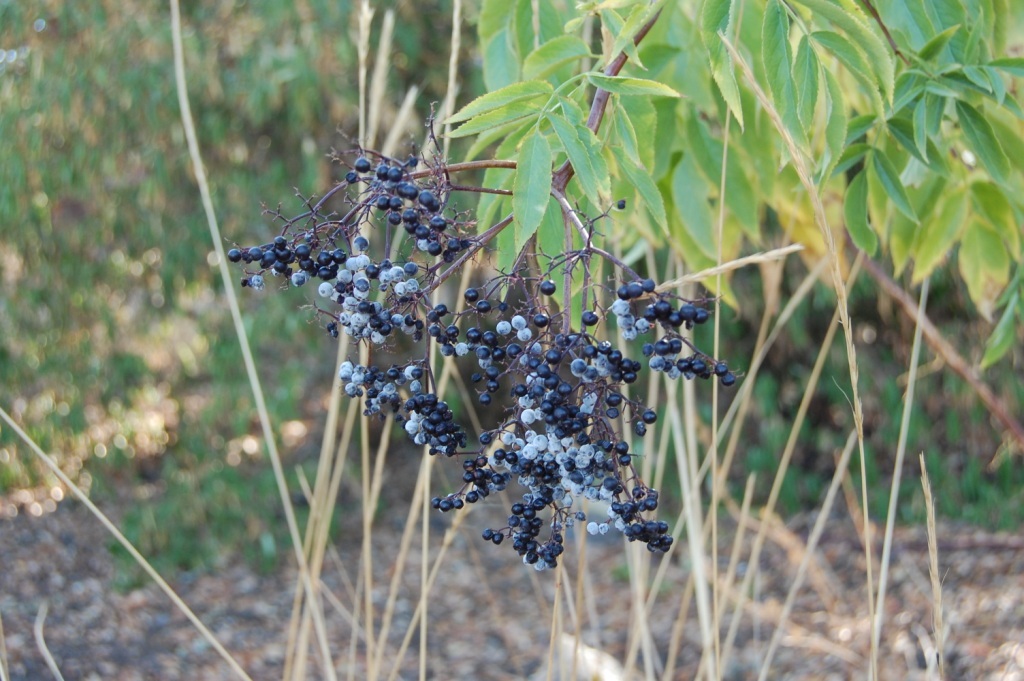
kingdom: Plantae
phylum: Tracheophyta
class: Magnoliopsida
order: Dipsacales
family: Viburnaceae
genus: Sambucus
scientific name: Sambucus cerulea
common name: Blue elder
